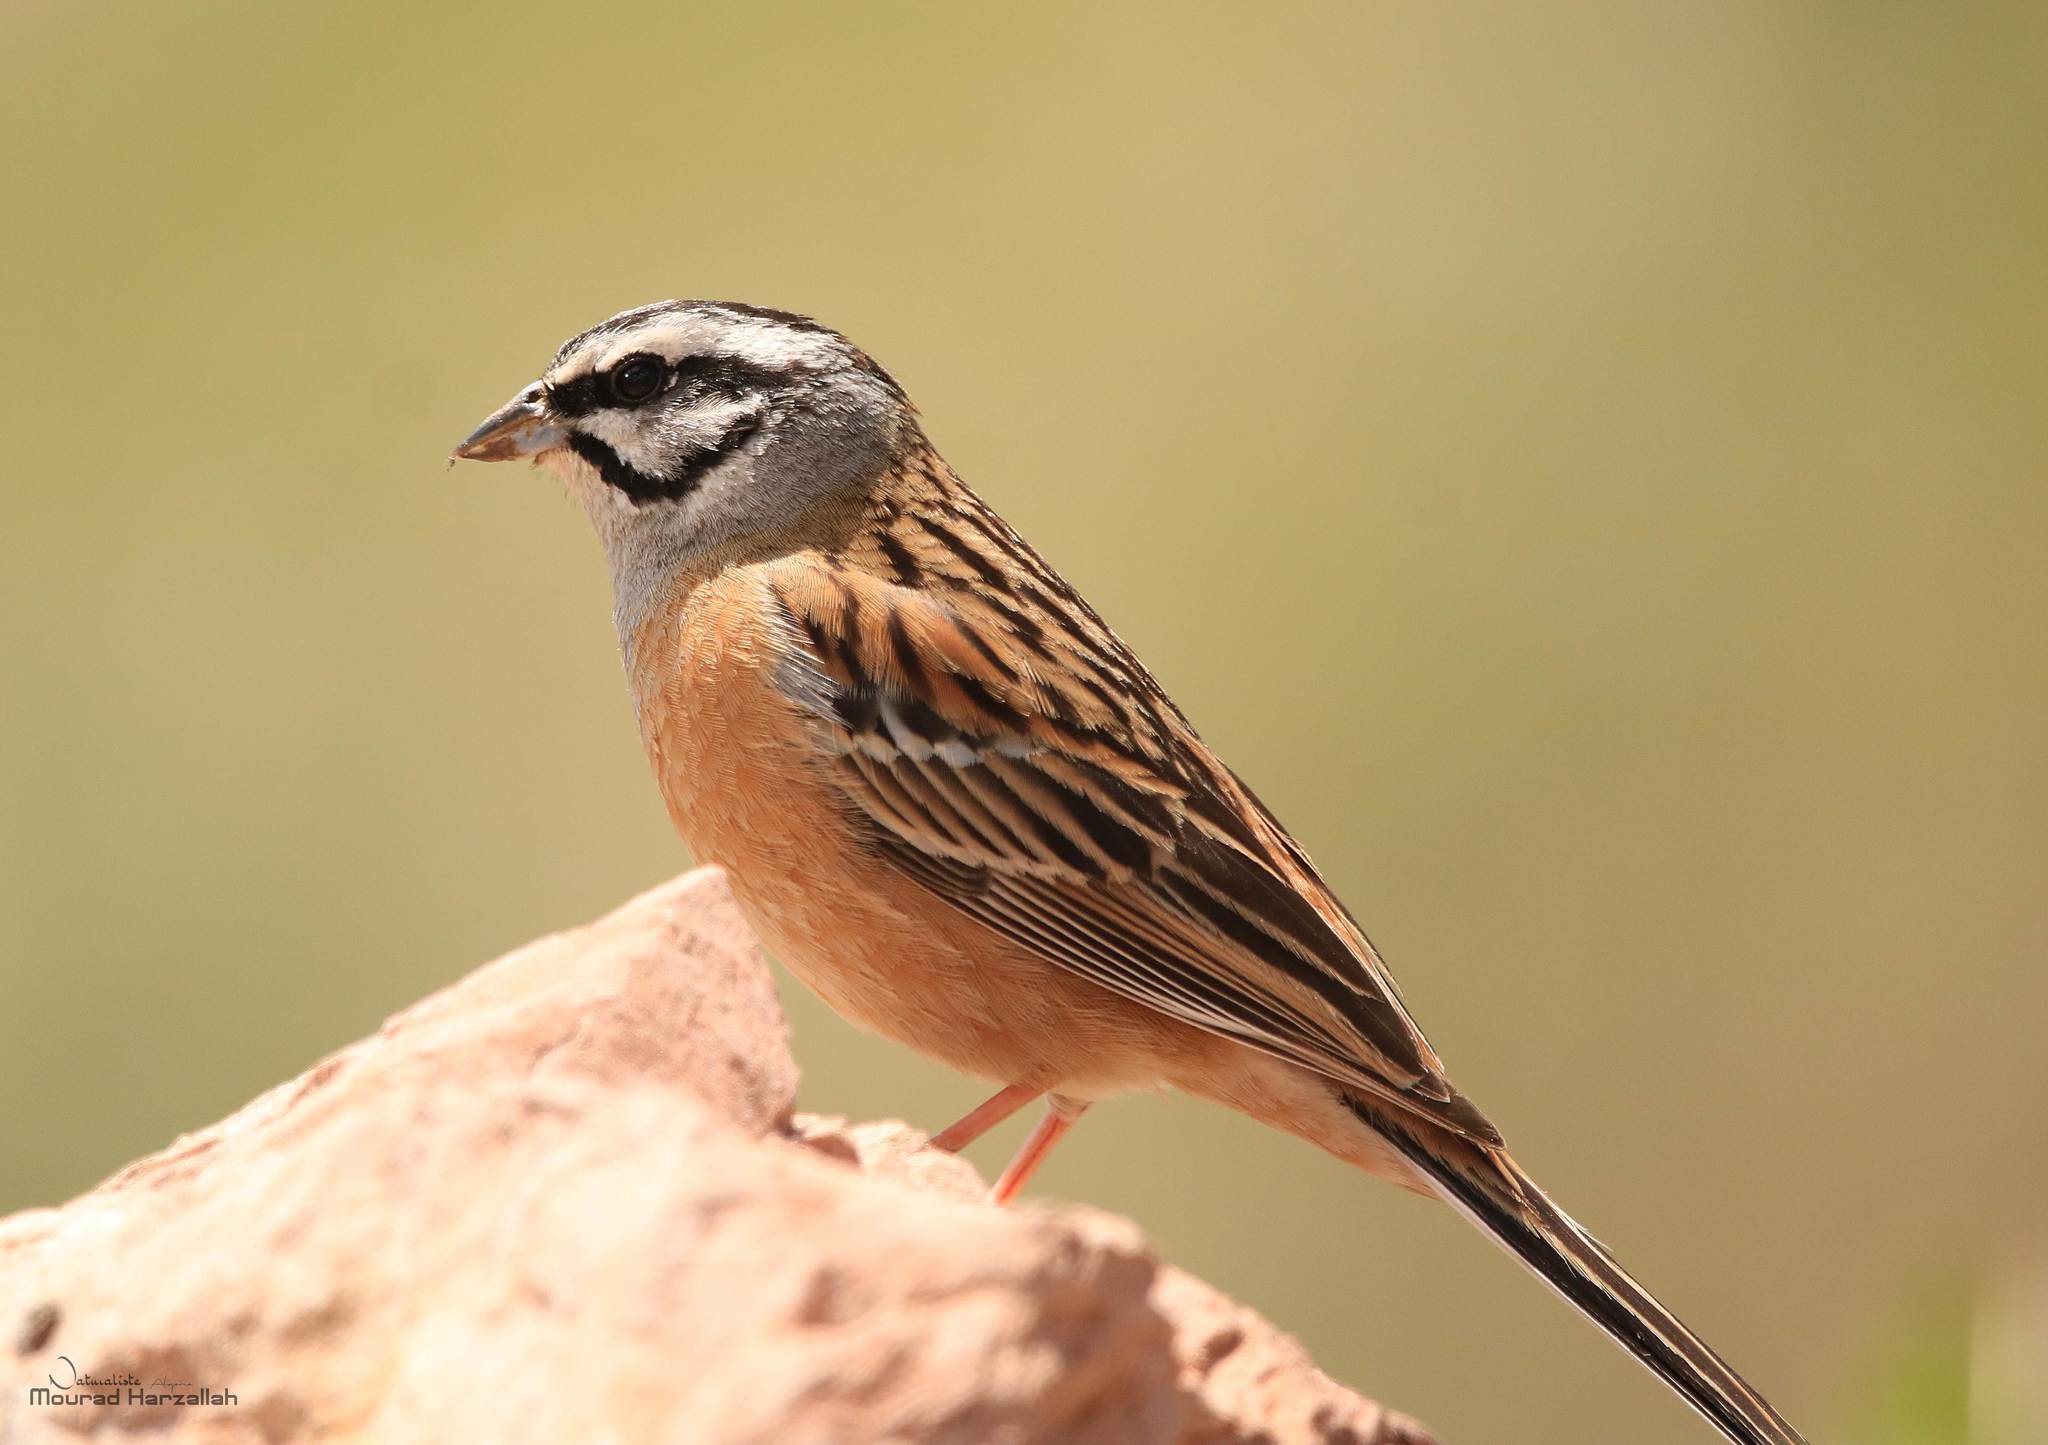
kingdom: Animalia
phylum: Chordata
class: Aves
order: Passeriformes
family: Emberizidae
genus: Emberiza
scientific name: Emberiza cia
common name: Rock bunting
